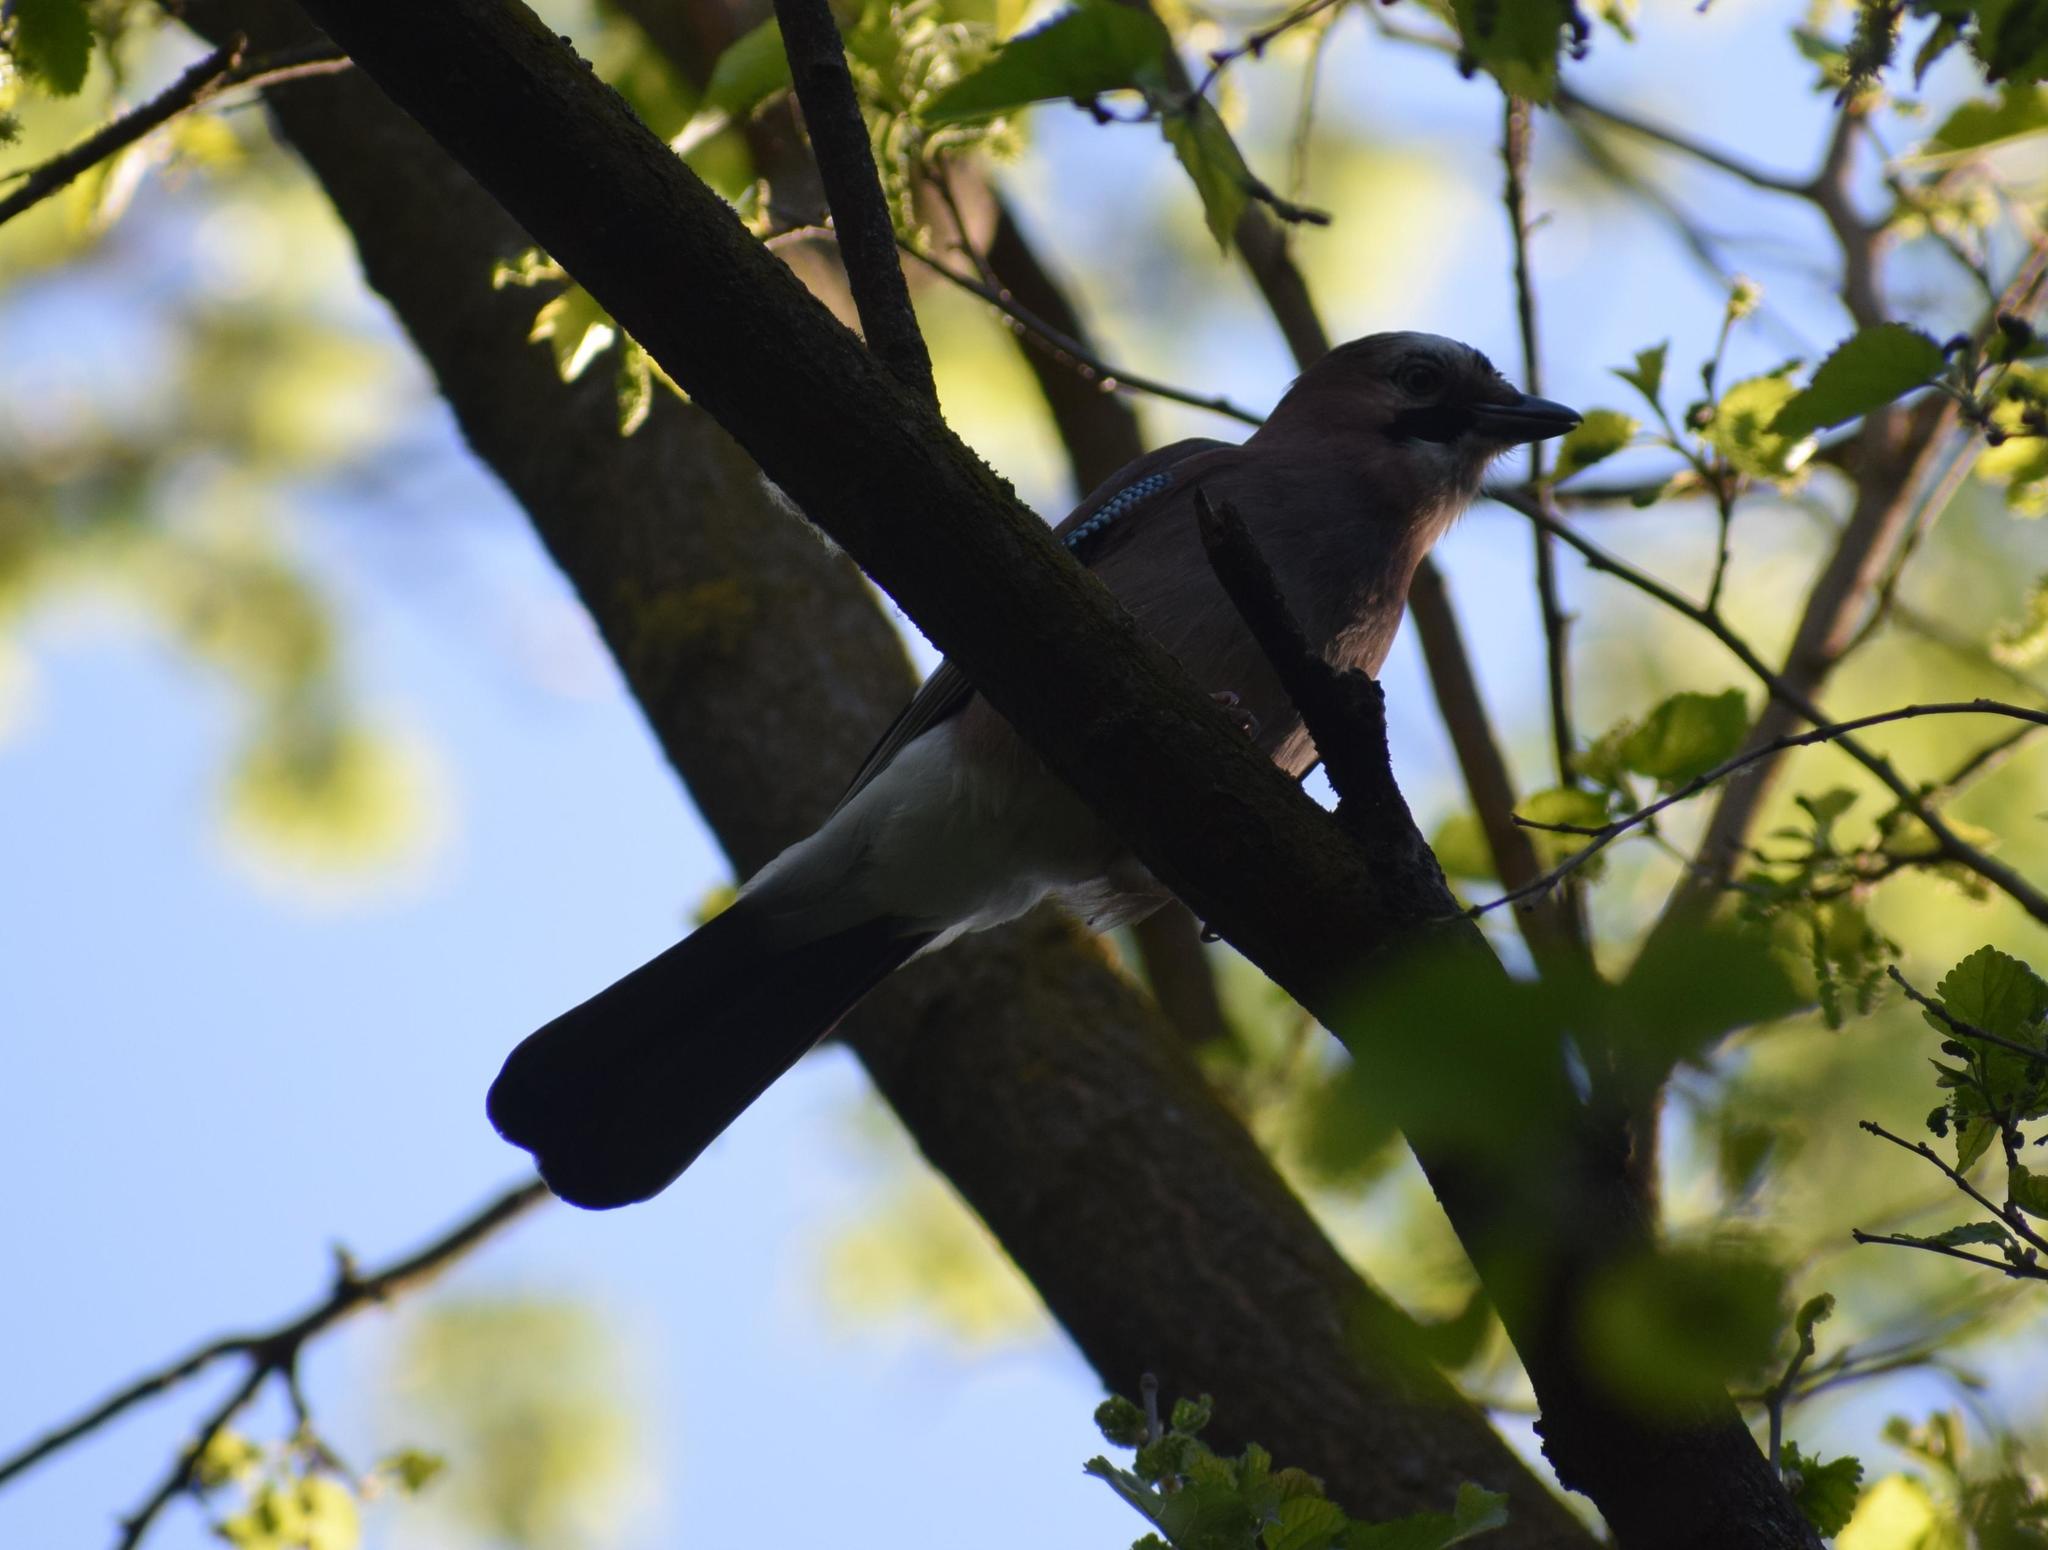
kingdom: Animalia
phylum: Chordata
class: Aves
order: Passeriformes
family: Corvidae
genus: Garrulus
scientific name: Garrulus glandarius
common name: Eurasian jay
